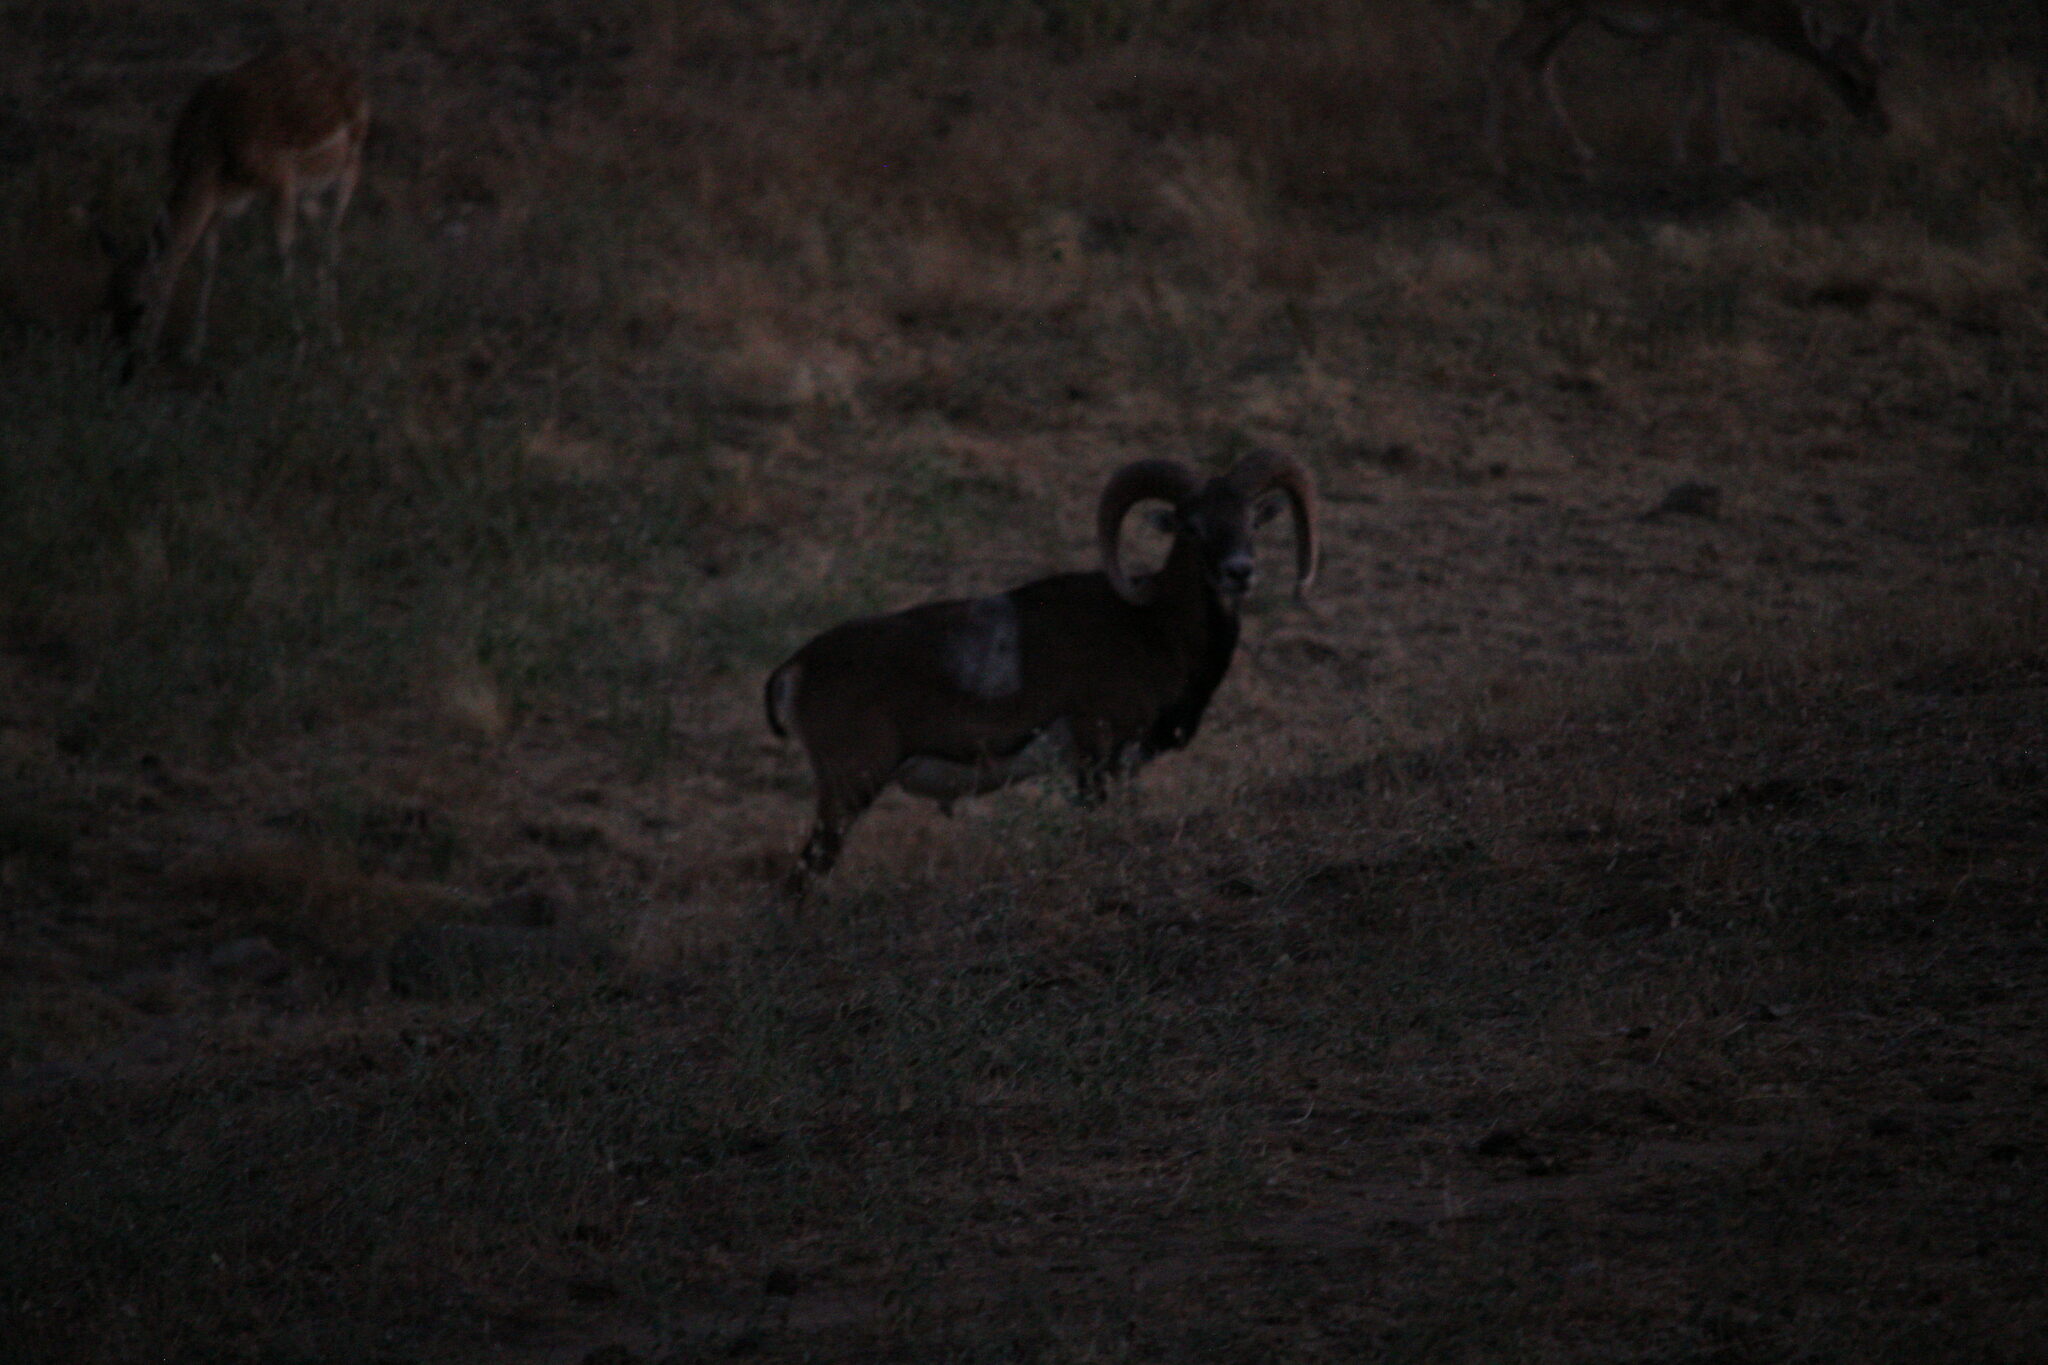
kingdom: Animalia
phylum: Chordata
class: Mammalia
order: Artiodactyla
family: Bovidae
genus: Ovis
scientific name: Ovis aries
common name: Domestic sheep
